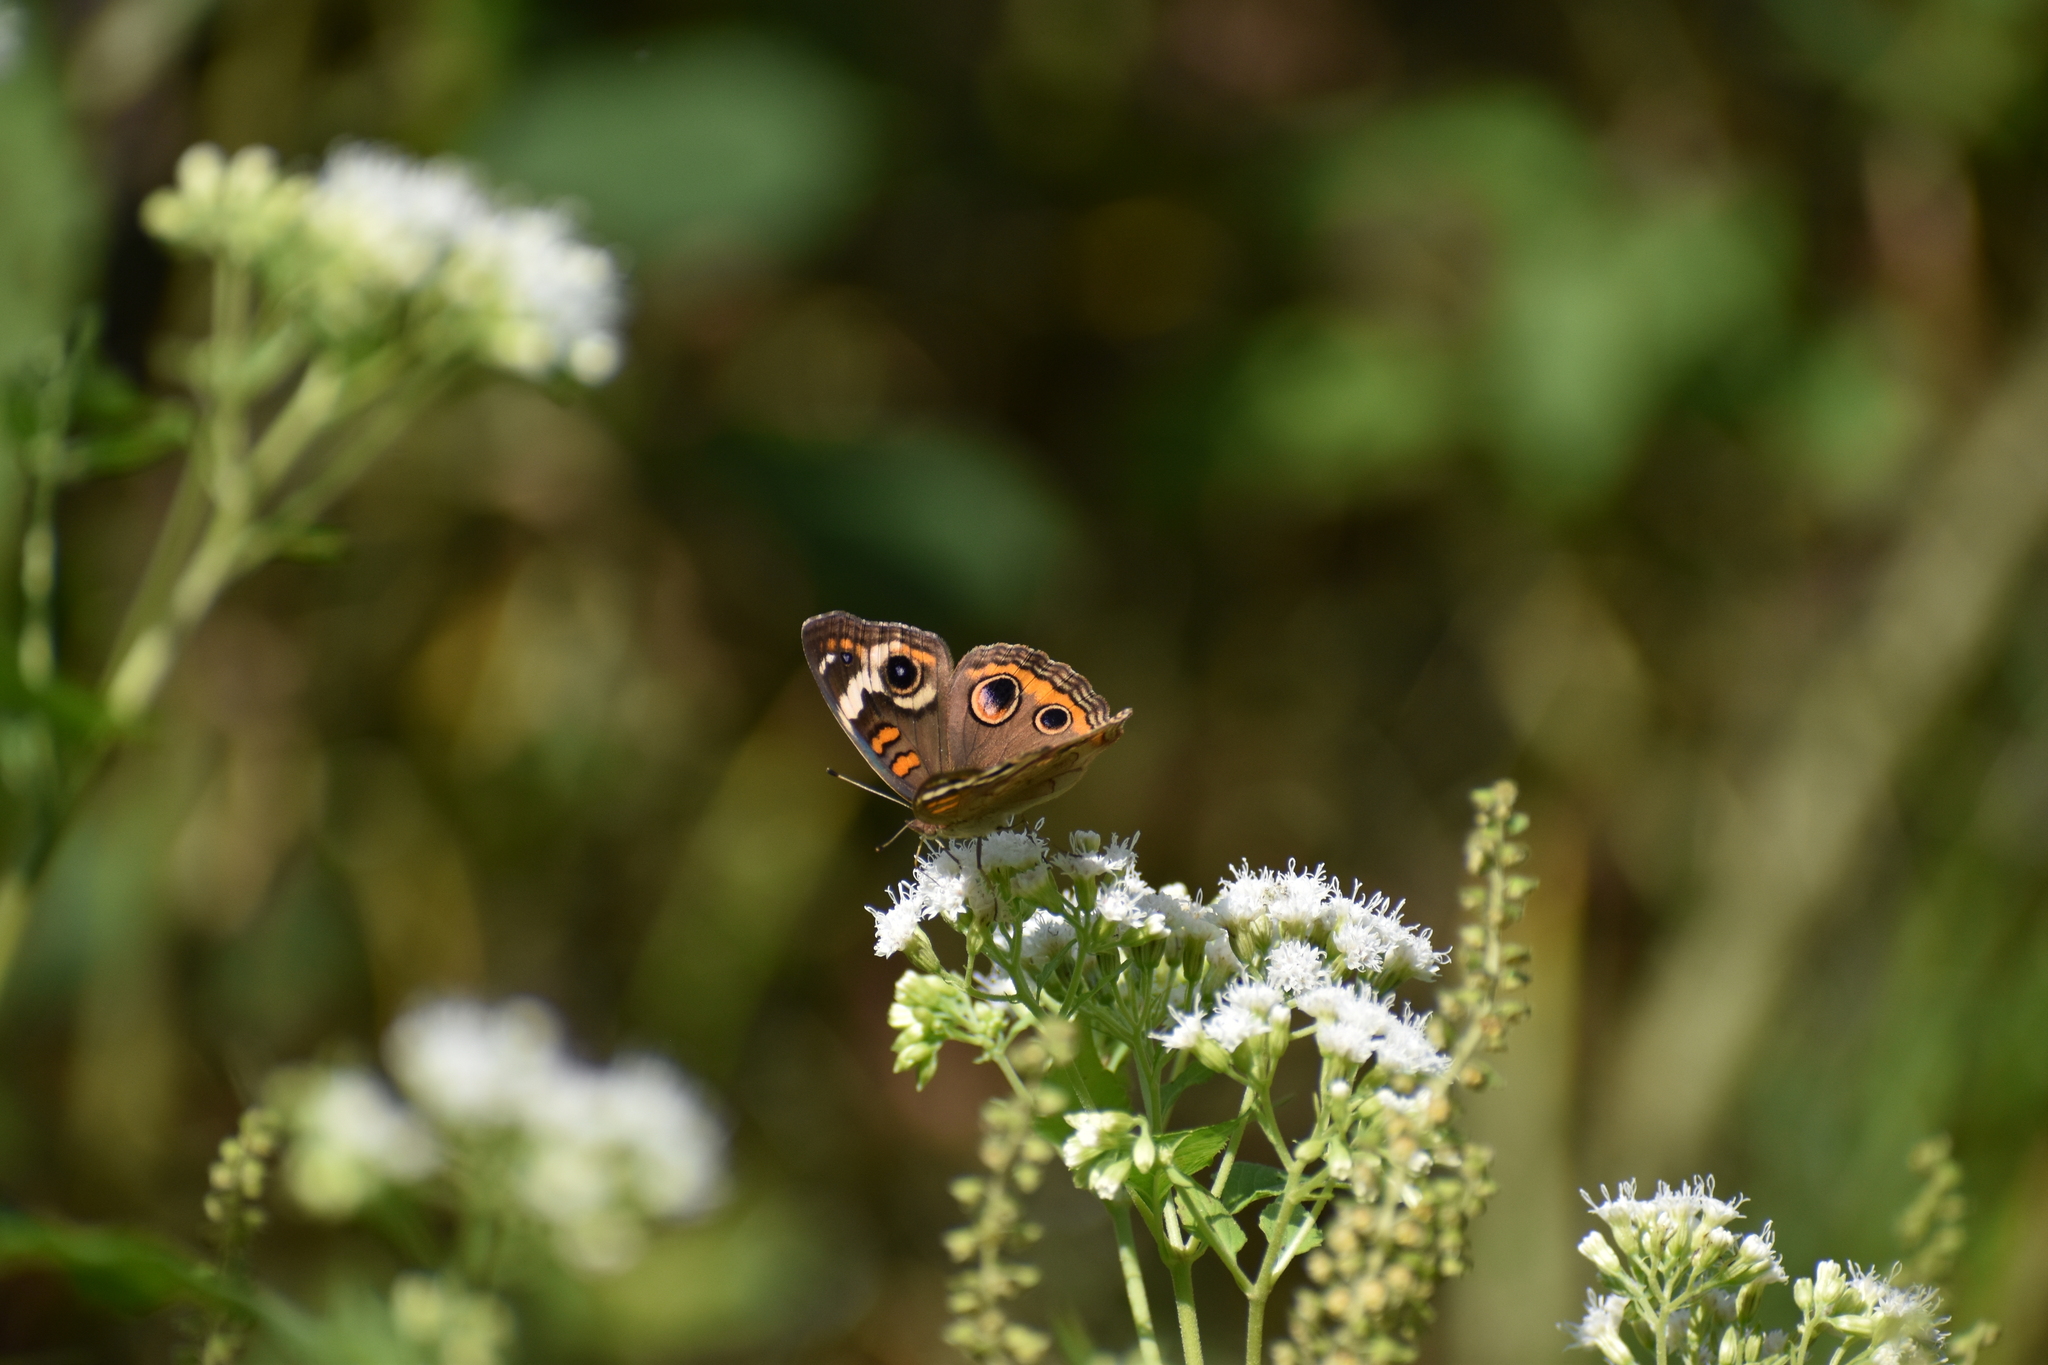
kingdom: Animalia
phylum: Arthropoda
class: Insecta
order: Lepidoptera
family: Nymphalidae
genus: Junonia
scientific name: Junonia coenia
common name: Common buckeye
